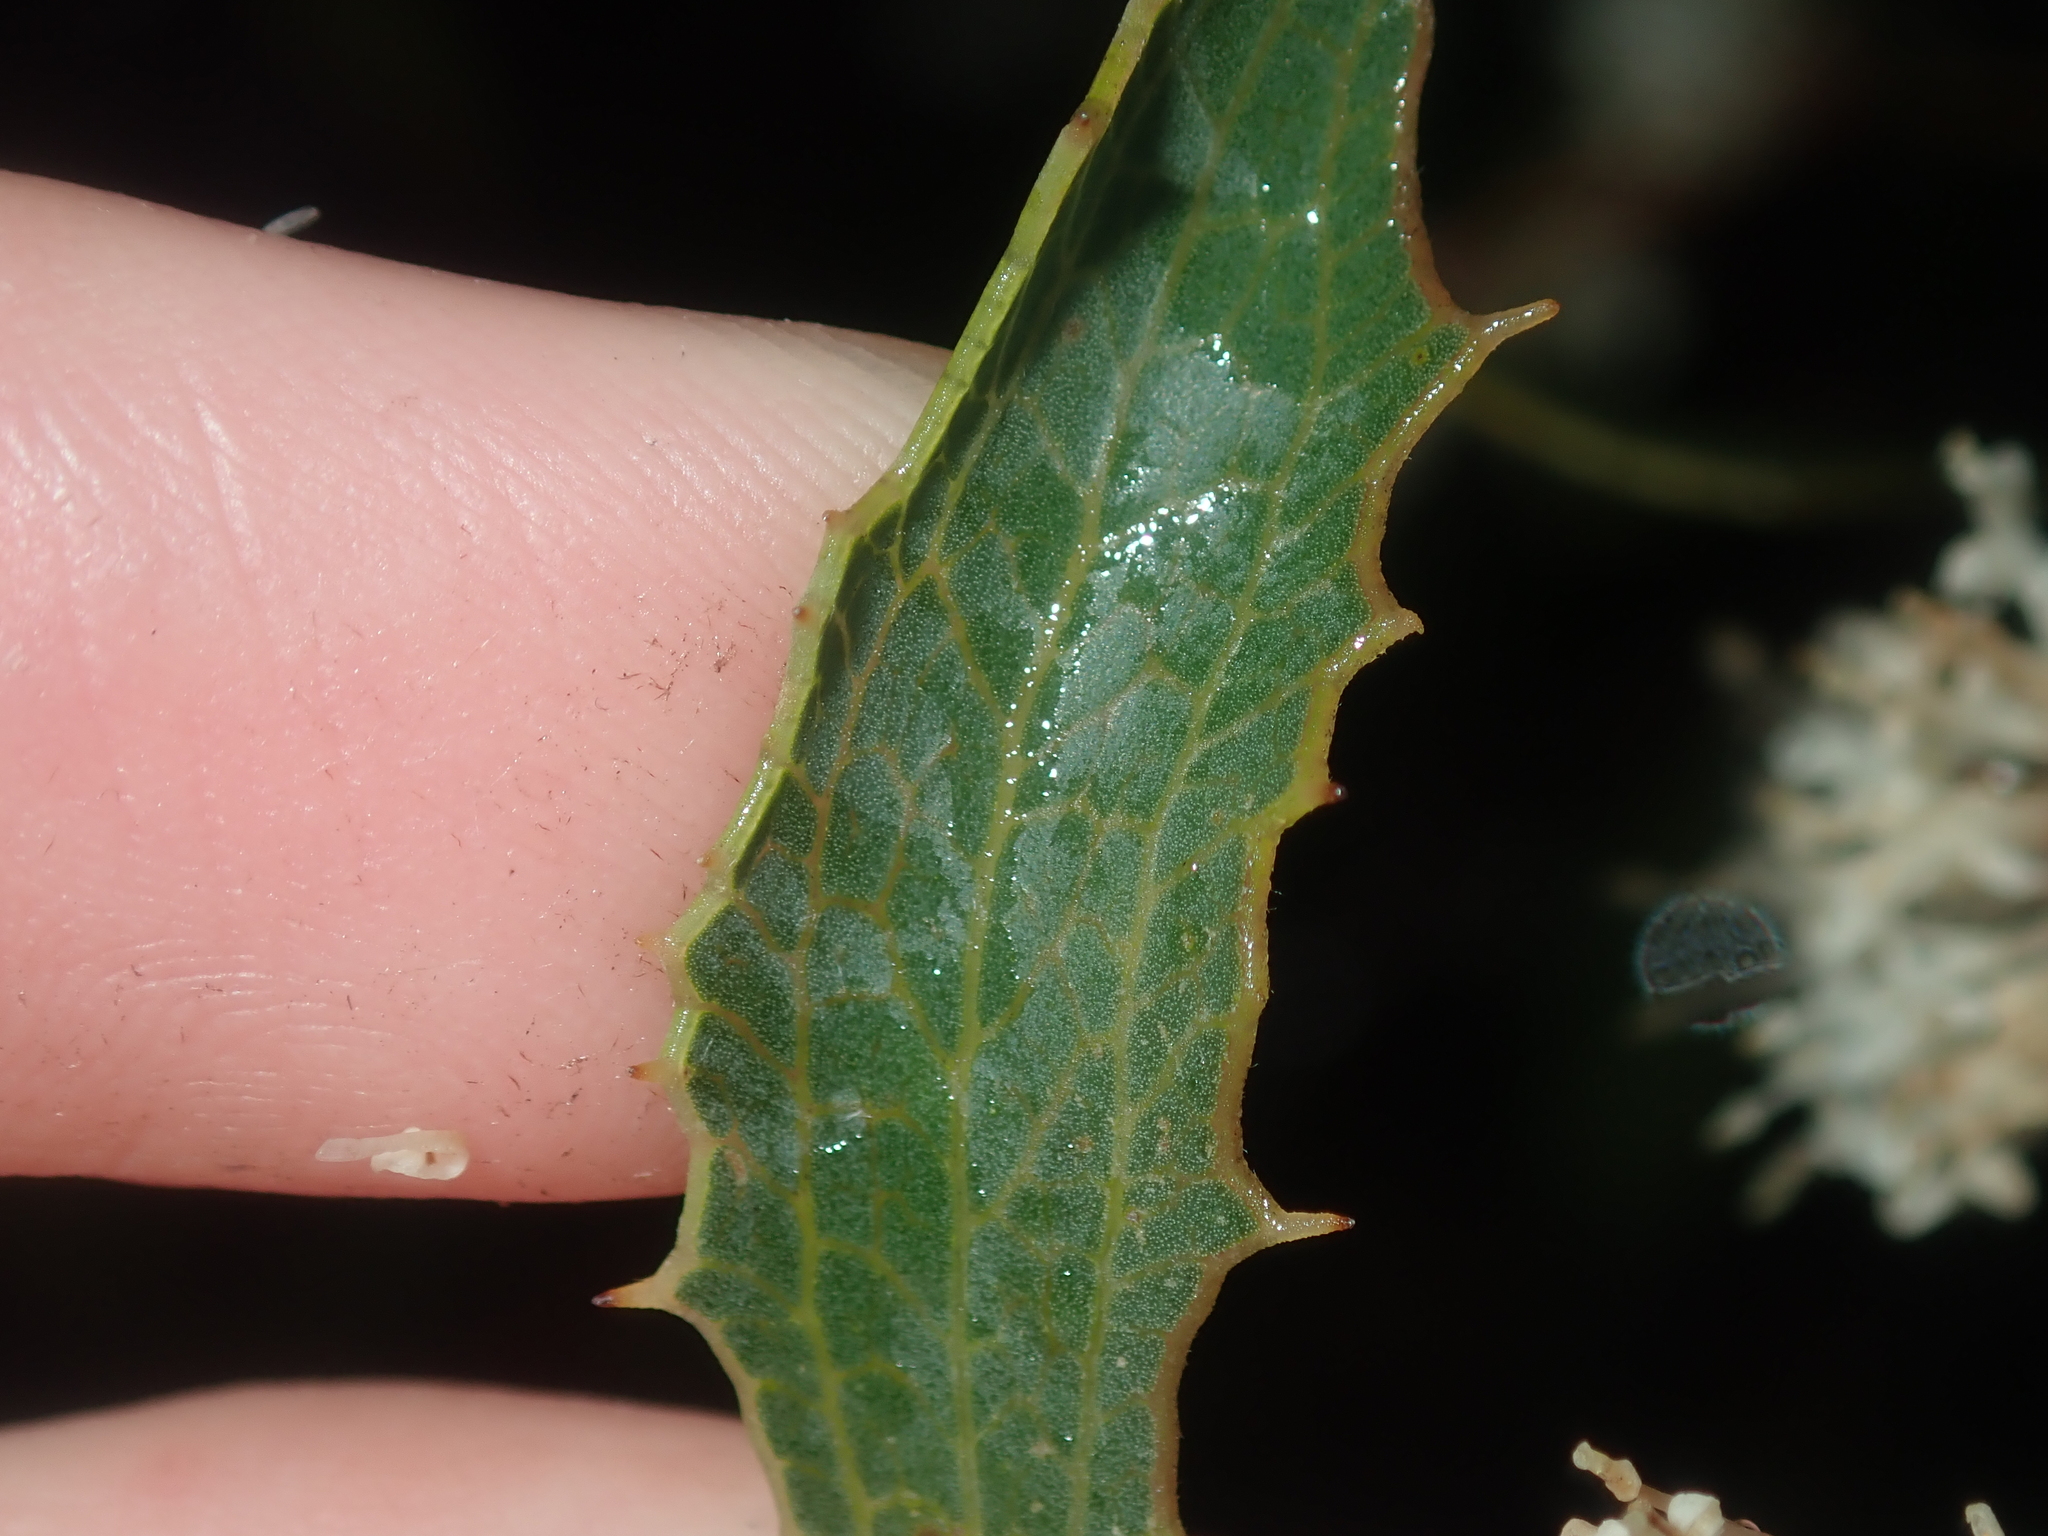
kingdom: Plantae
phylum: Tracheophyta
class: Magnoliopsida
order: Proteales
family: Proteaceae
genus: Hakea
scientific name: Hakea anadenia
